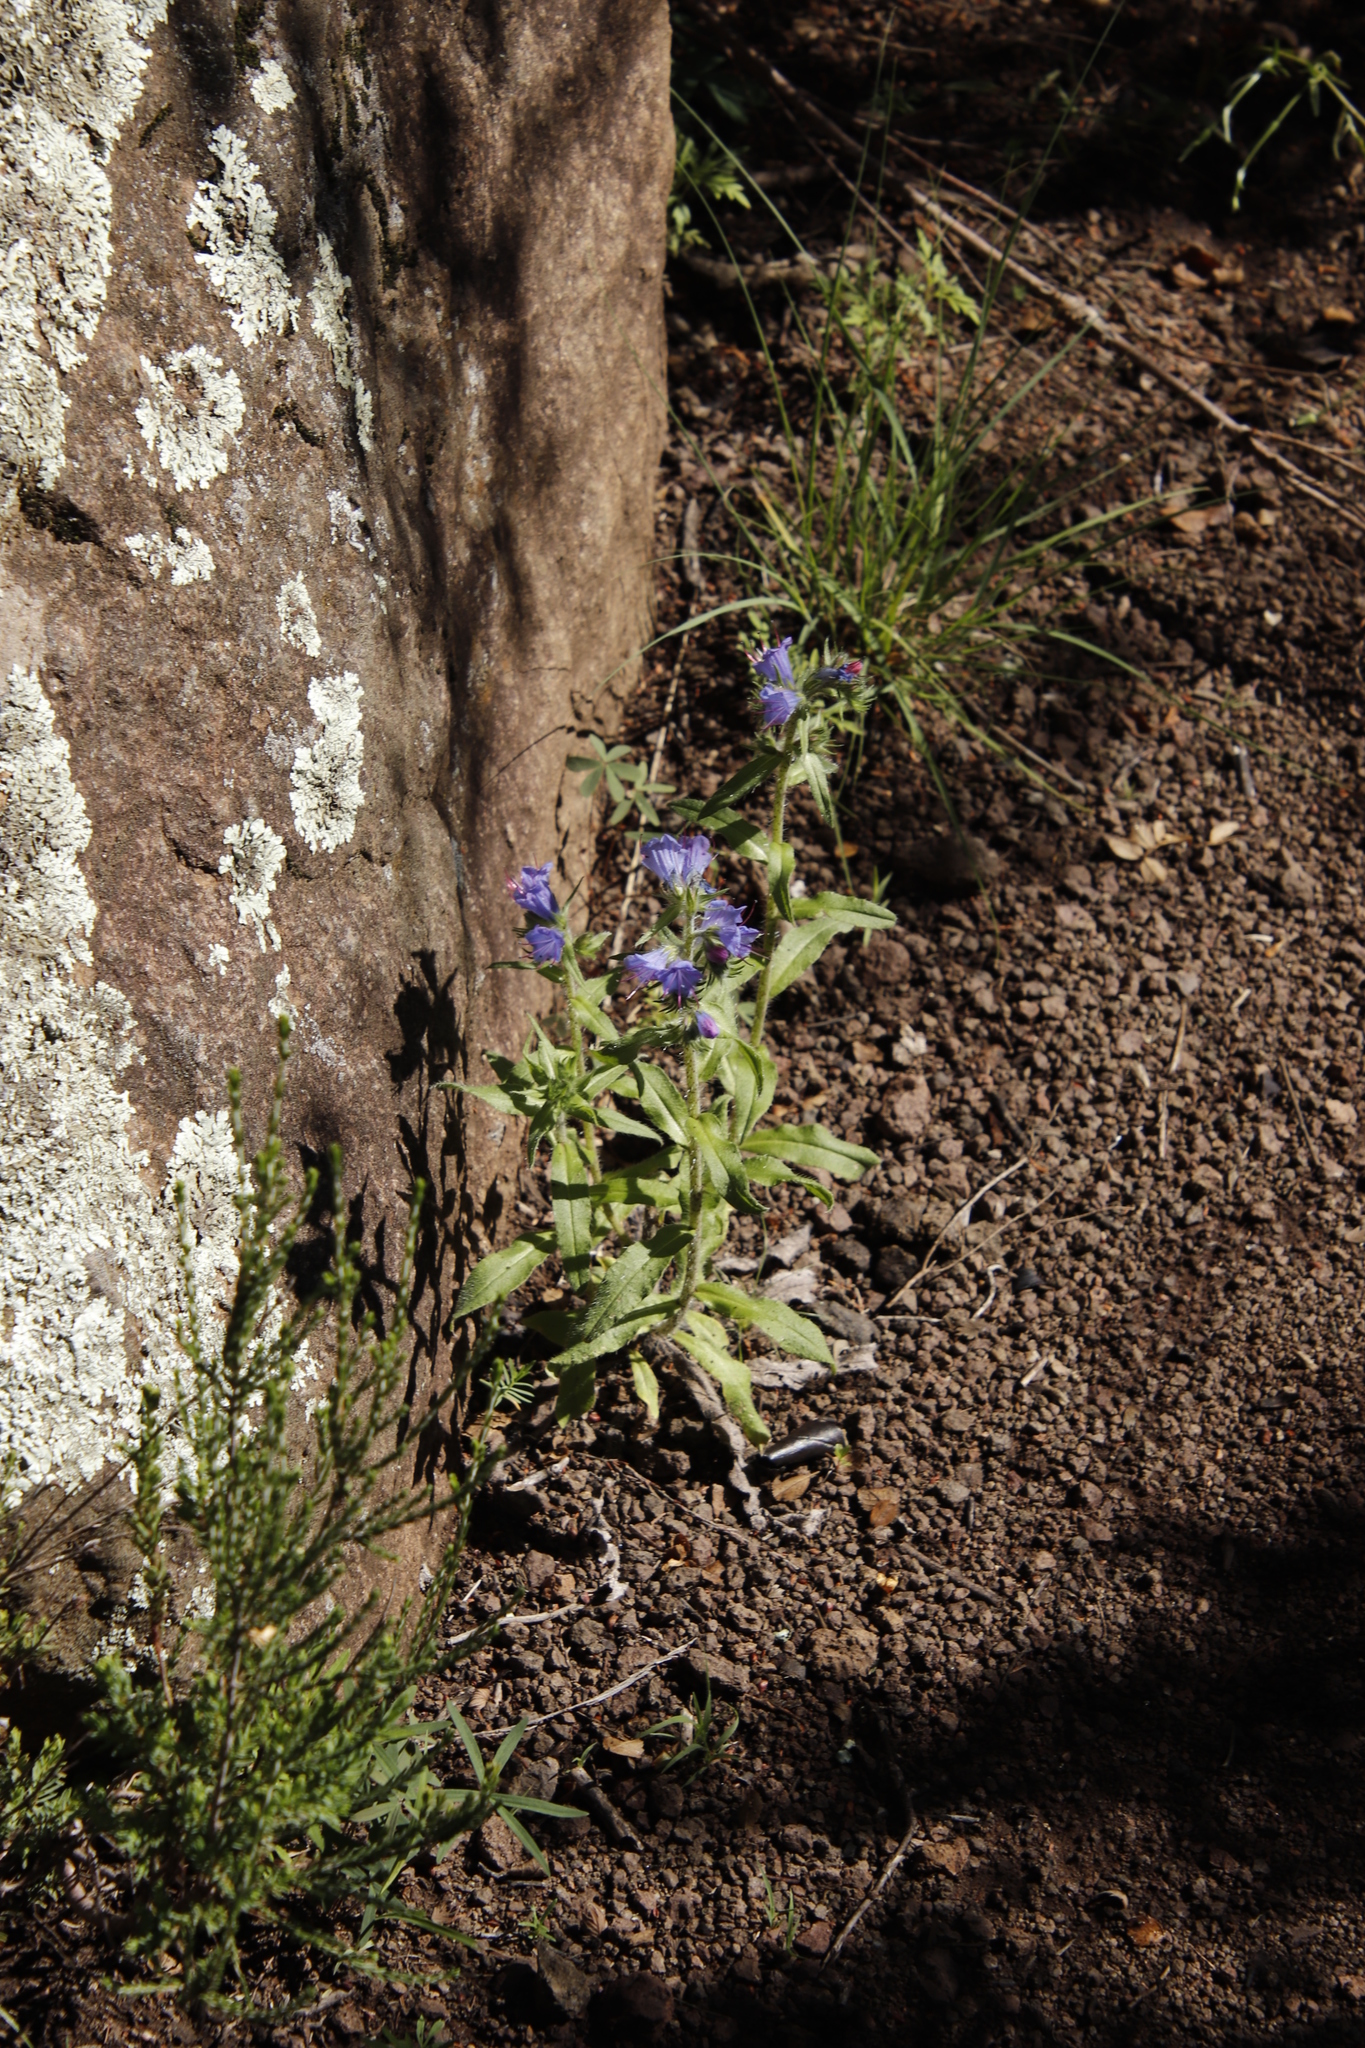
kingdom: Plantae
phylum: Tracheophyta
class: Magnoliopsida
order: Boraginales
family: Boraginaceae
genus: Echium
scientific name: Echium vulgare
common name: Common viper's bugloss
